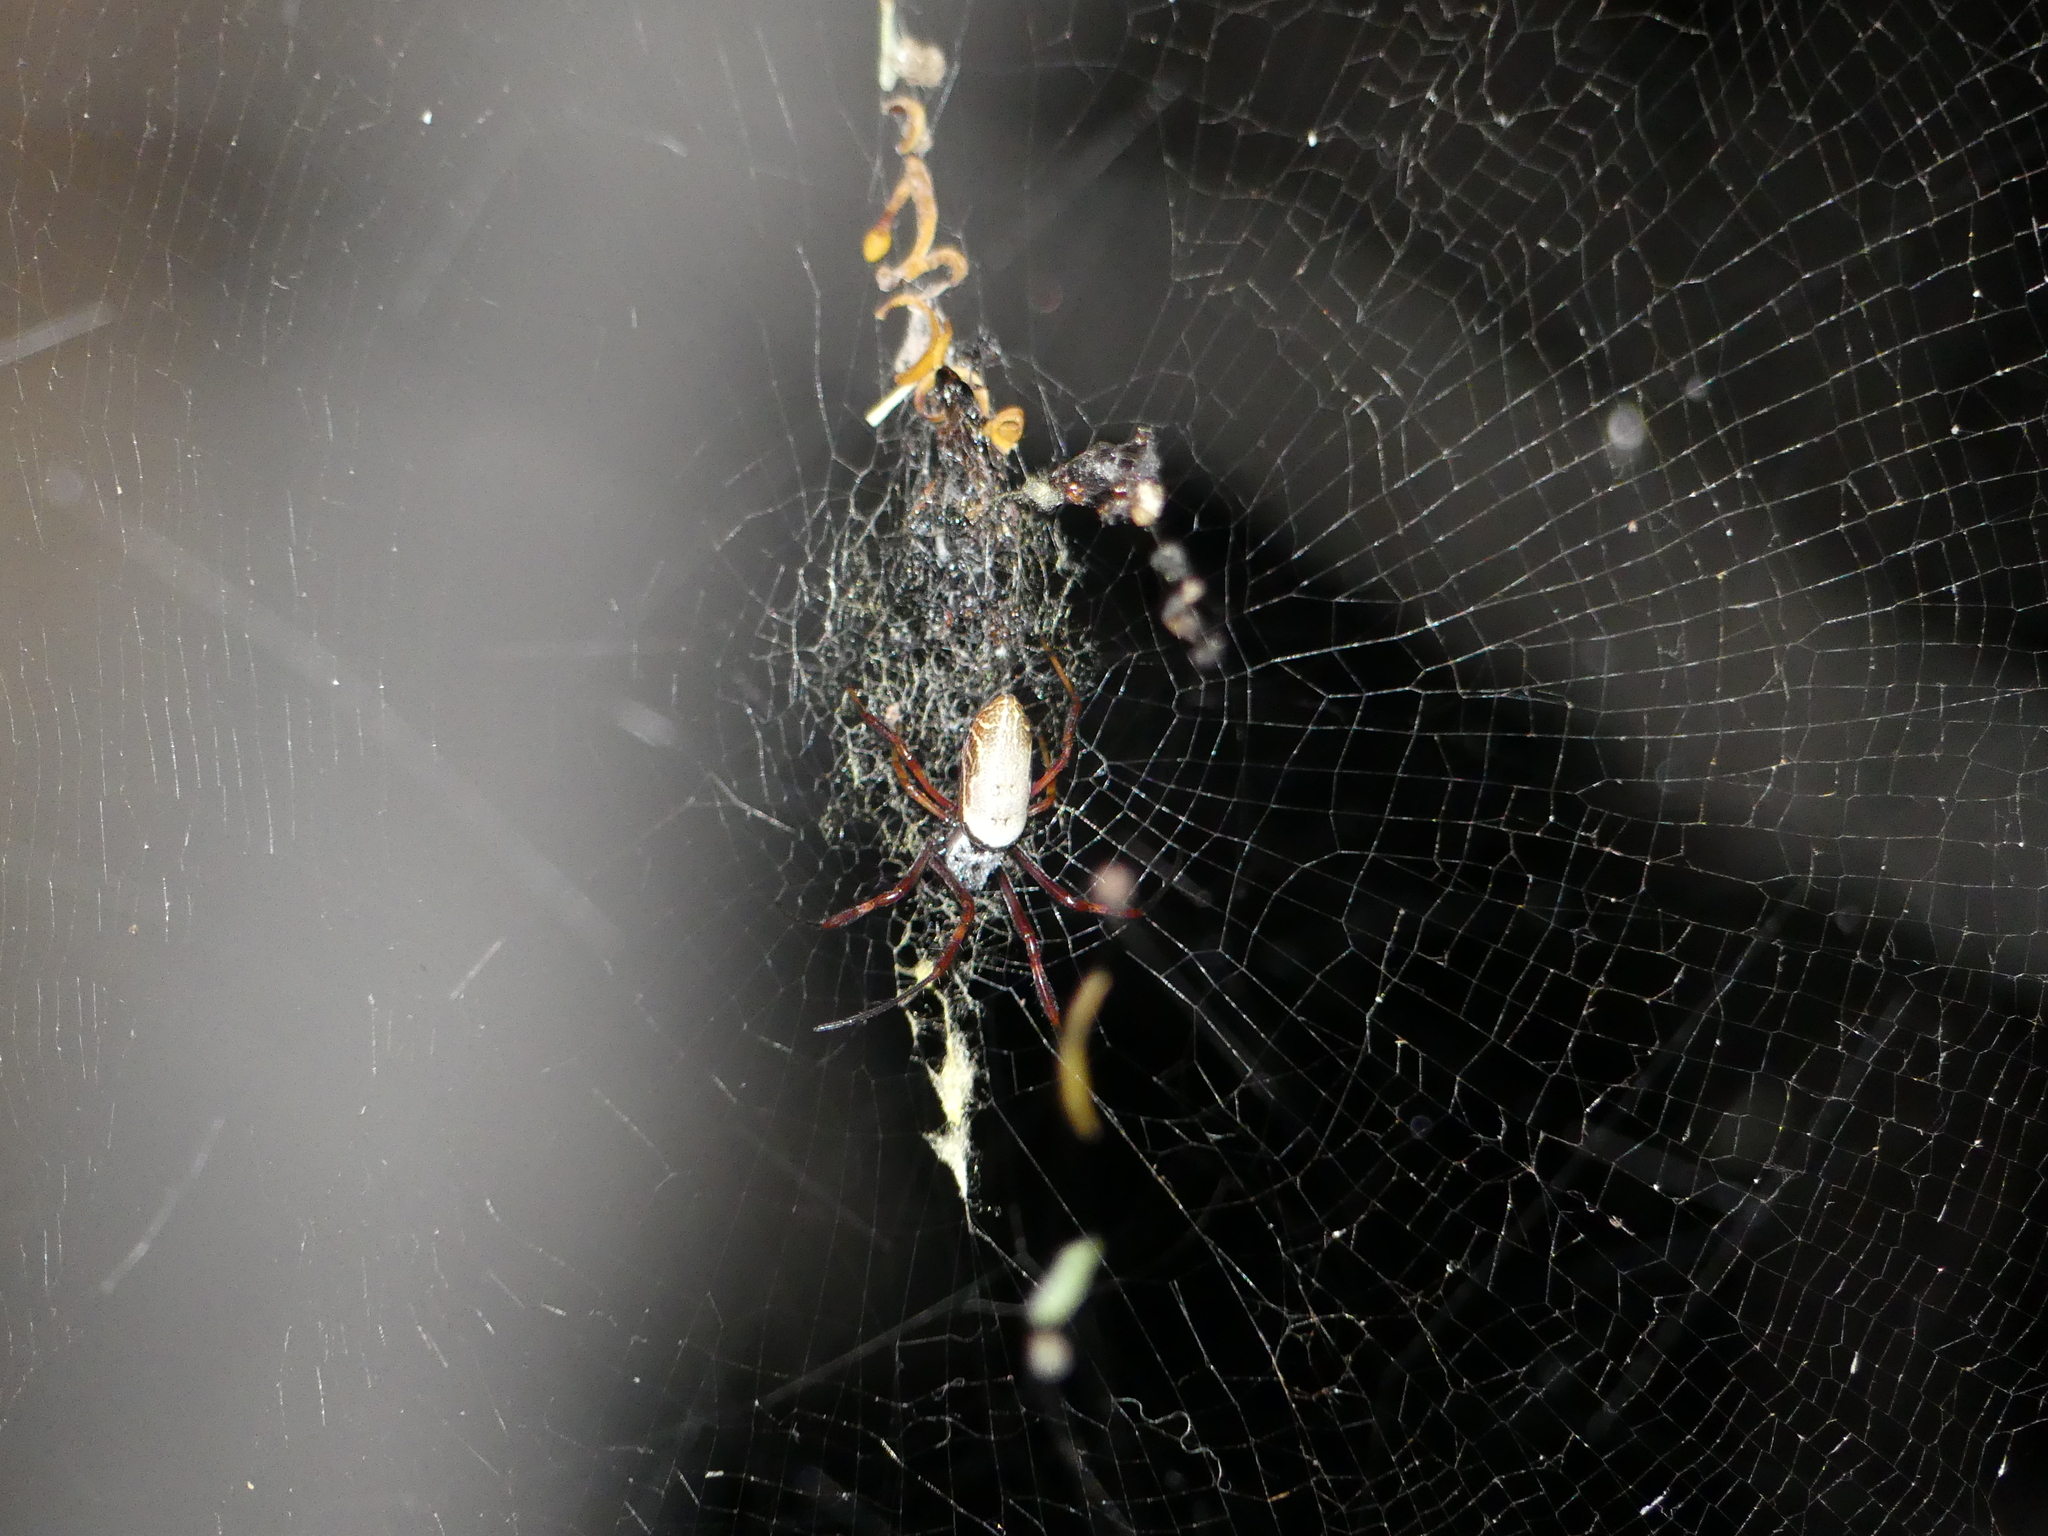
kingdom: Animalia
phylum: Arthropoda
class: Arachnida
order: Araneae
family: Araneidae
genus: Trichonephila
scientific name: Trichonephila edulis
